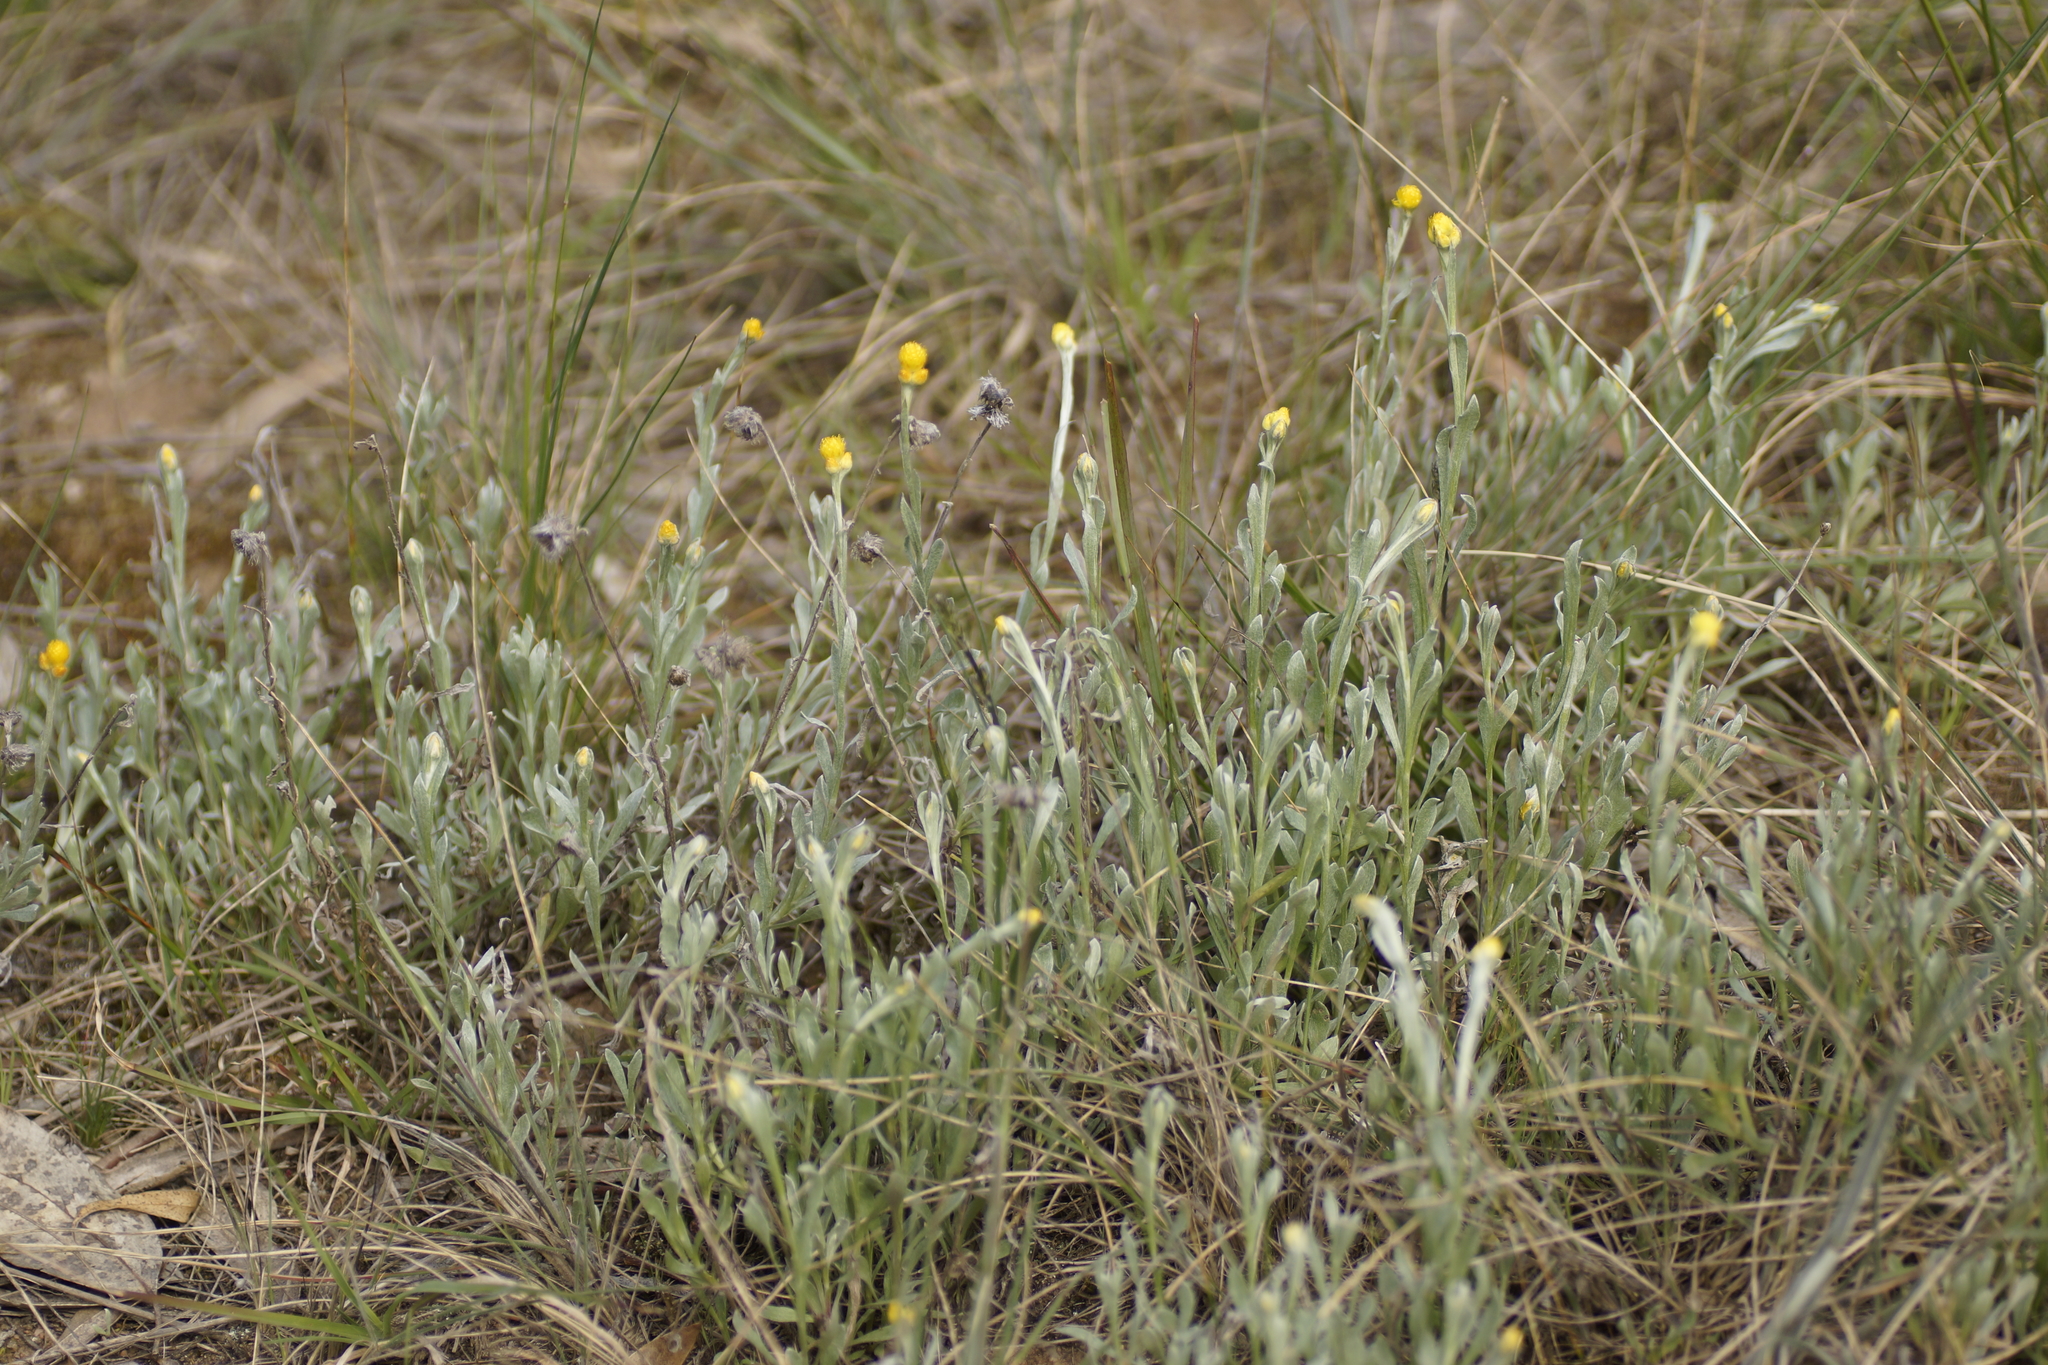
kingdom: Plantae
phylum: Tracheophyta
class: Magnoliopsida
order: Asterales
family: Asteraceae
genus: Chrysocephalum
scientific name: Chrysocephalum apiculatum
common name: Common everlasting
